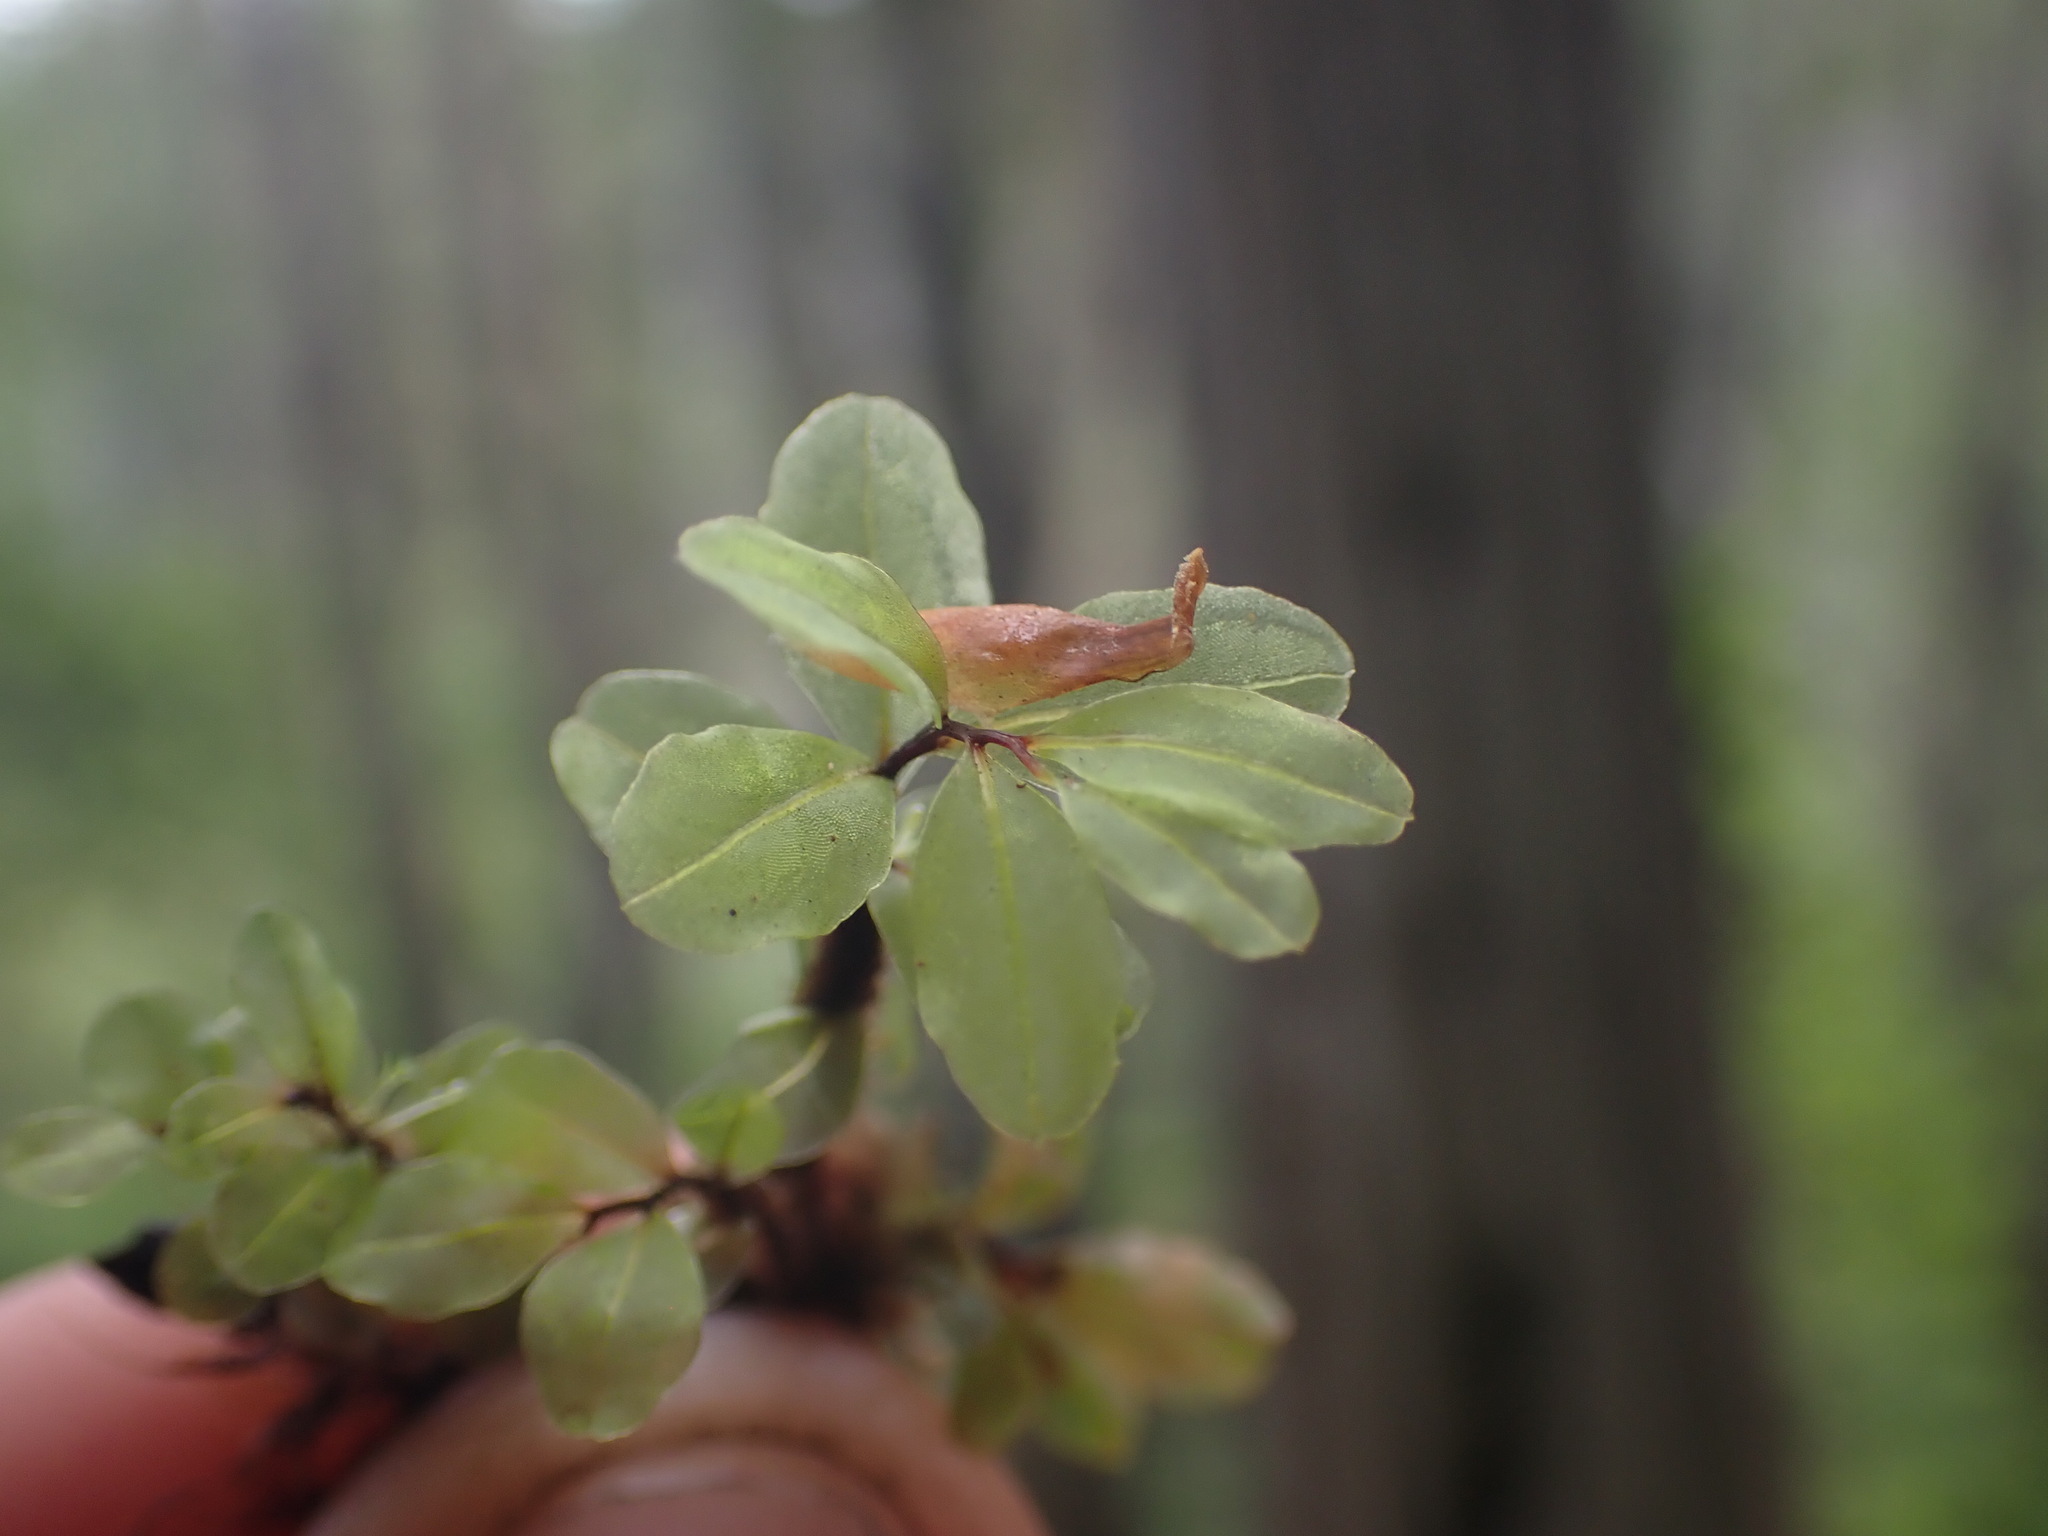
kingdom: Plantae
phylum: Bryophyta
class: Bryopsida
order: Bryales
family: Mniaceae
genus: Rhizomnium
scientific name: Rhizomnium magnifolium
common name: Large-leaved leafy moss
